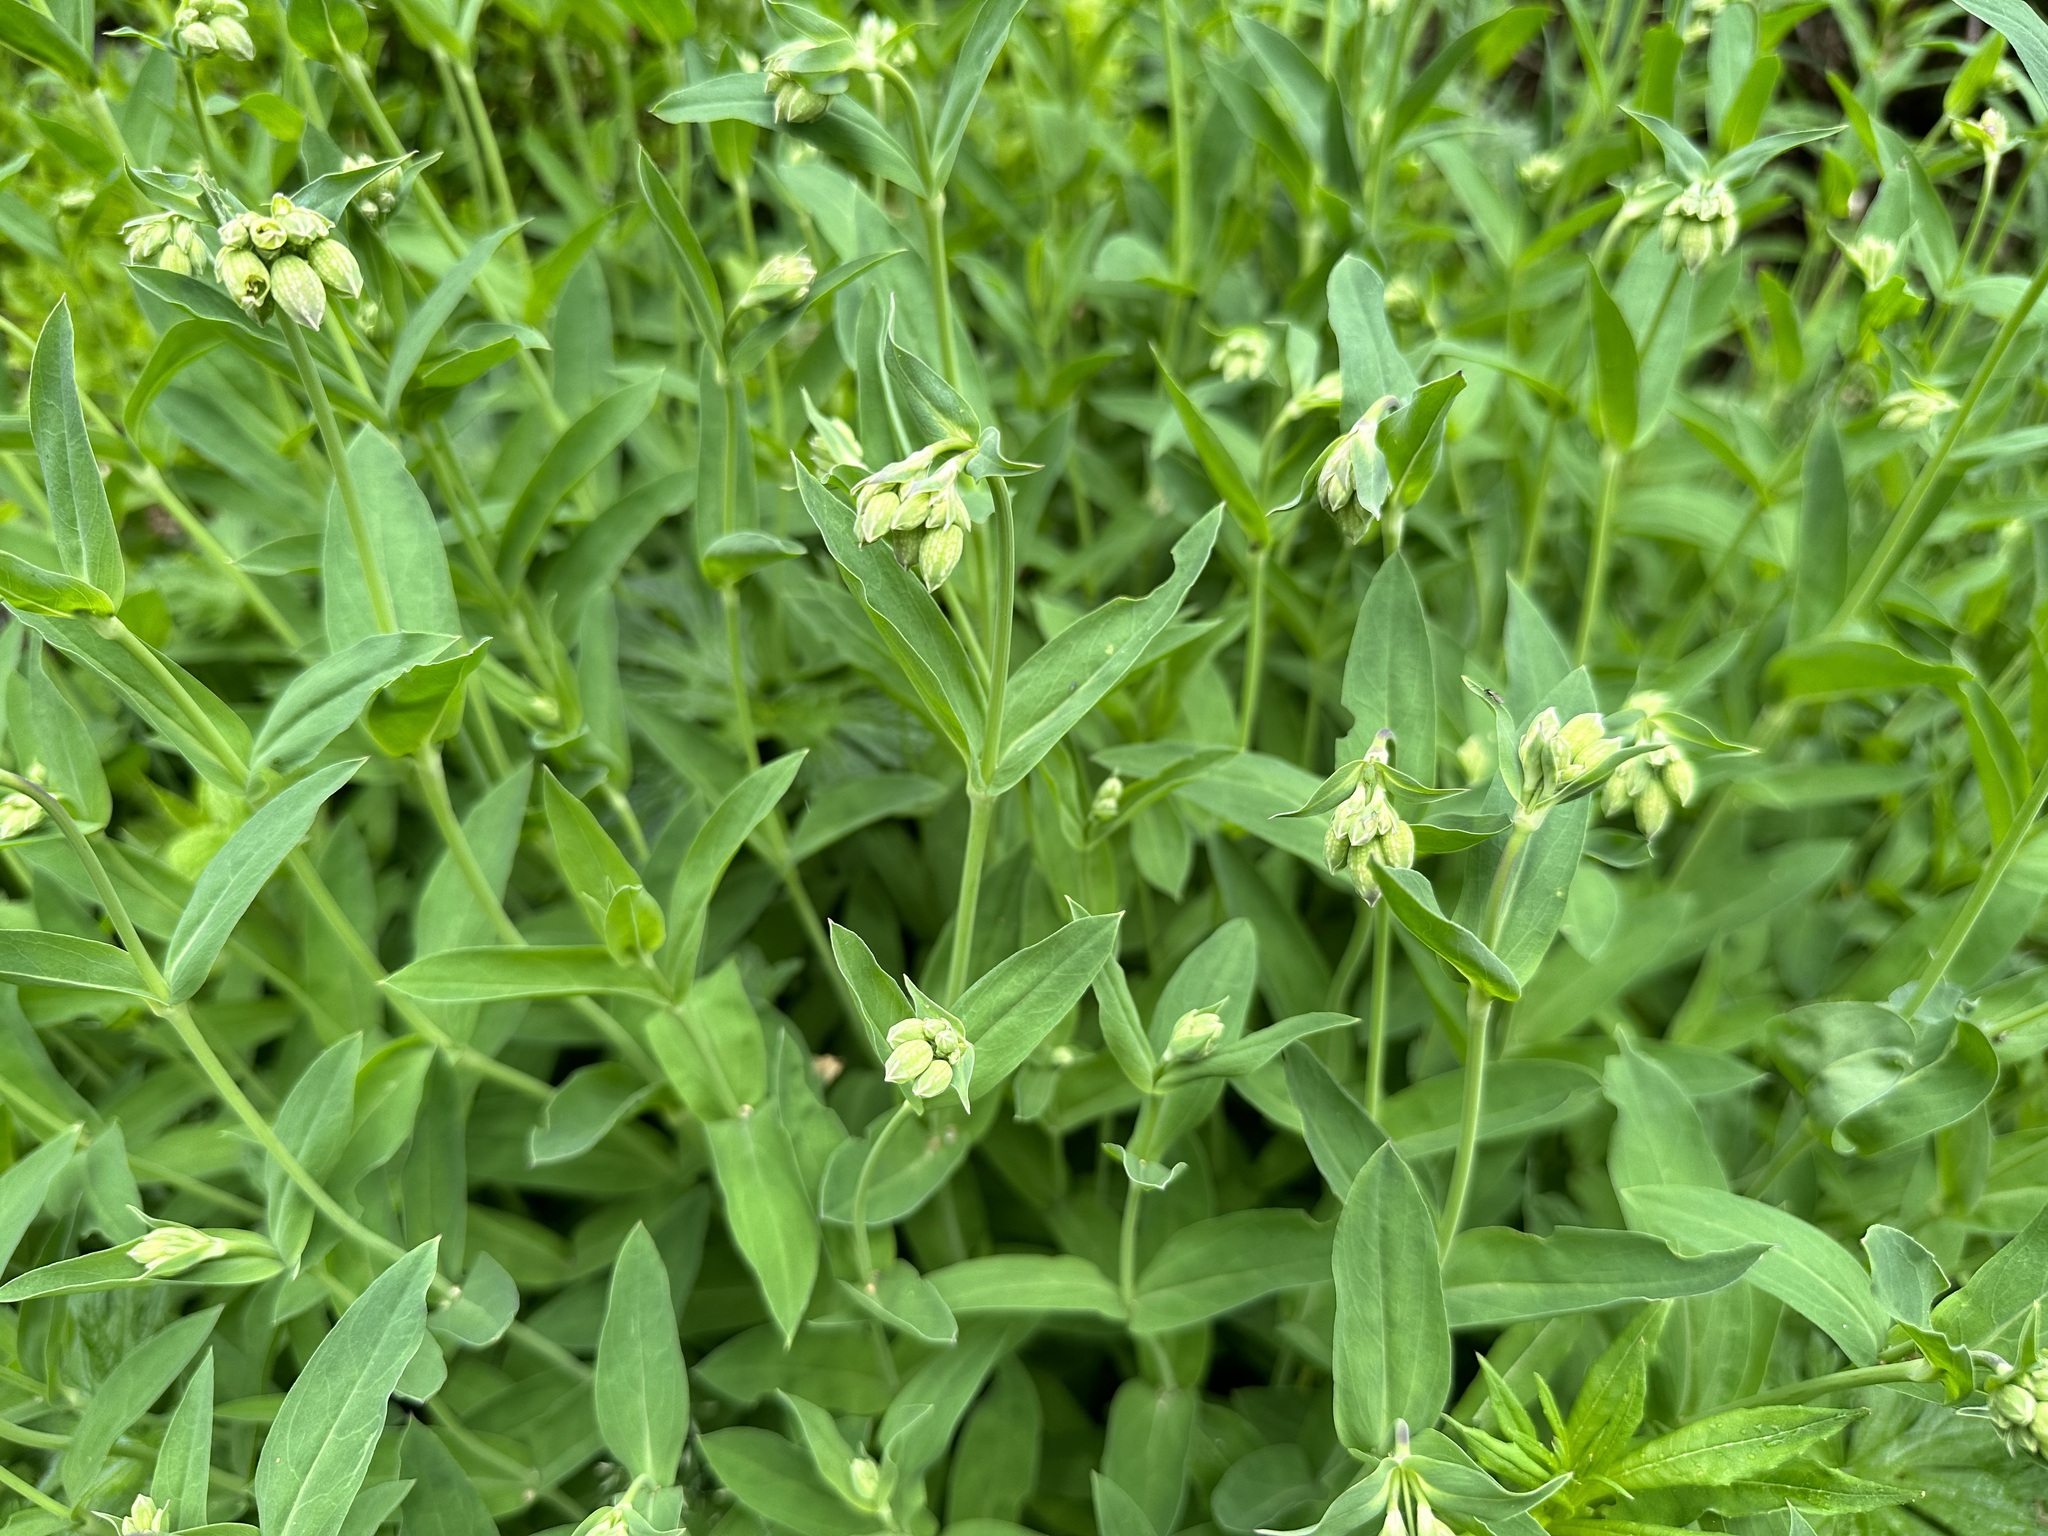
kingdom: Plantae
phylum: Tracheophyta
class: Magnoliopsida
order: Caryophyllales
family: Caryophyllaceae
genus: Silene
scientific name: Silene vulgaris
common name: Bladder campion
